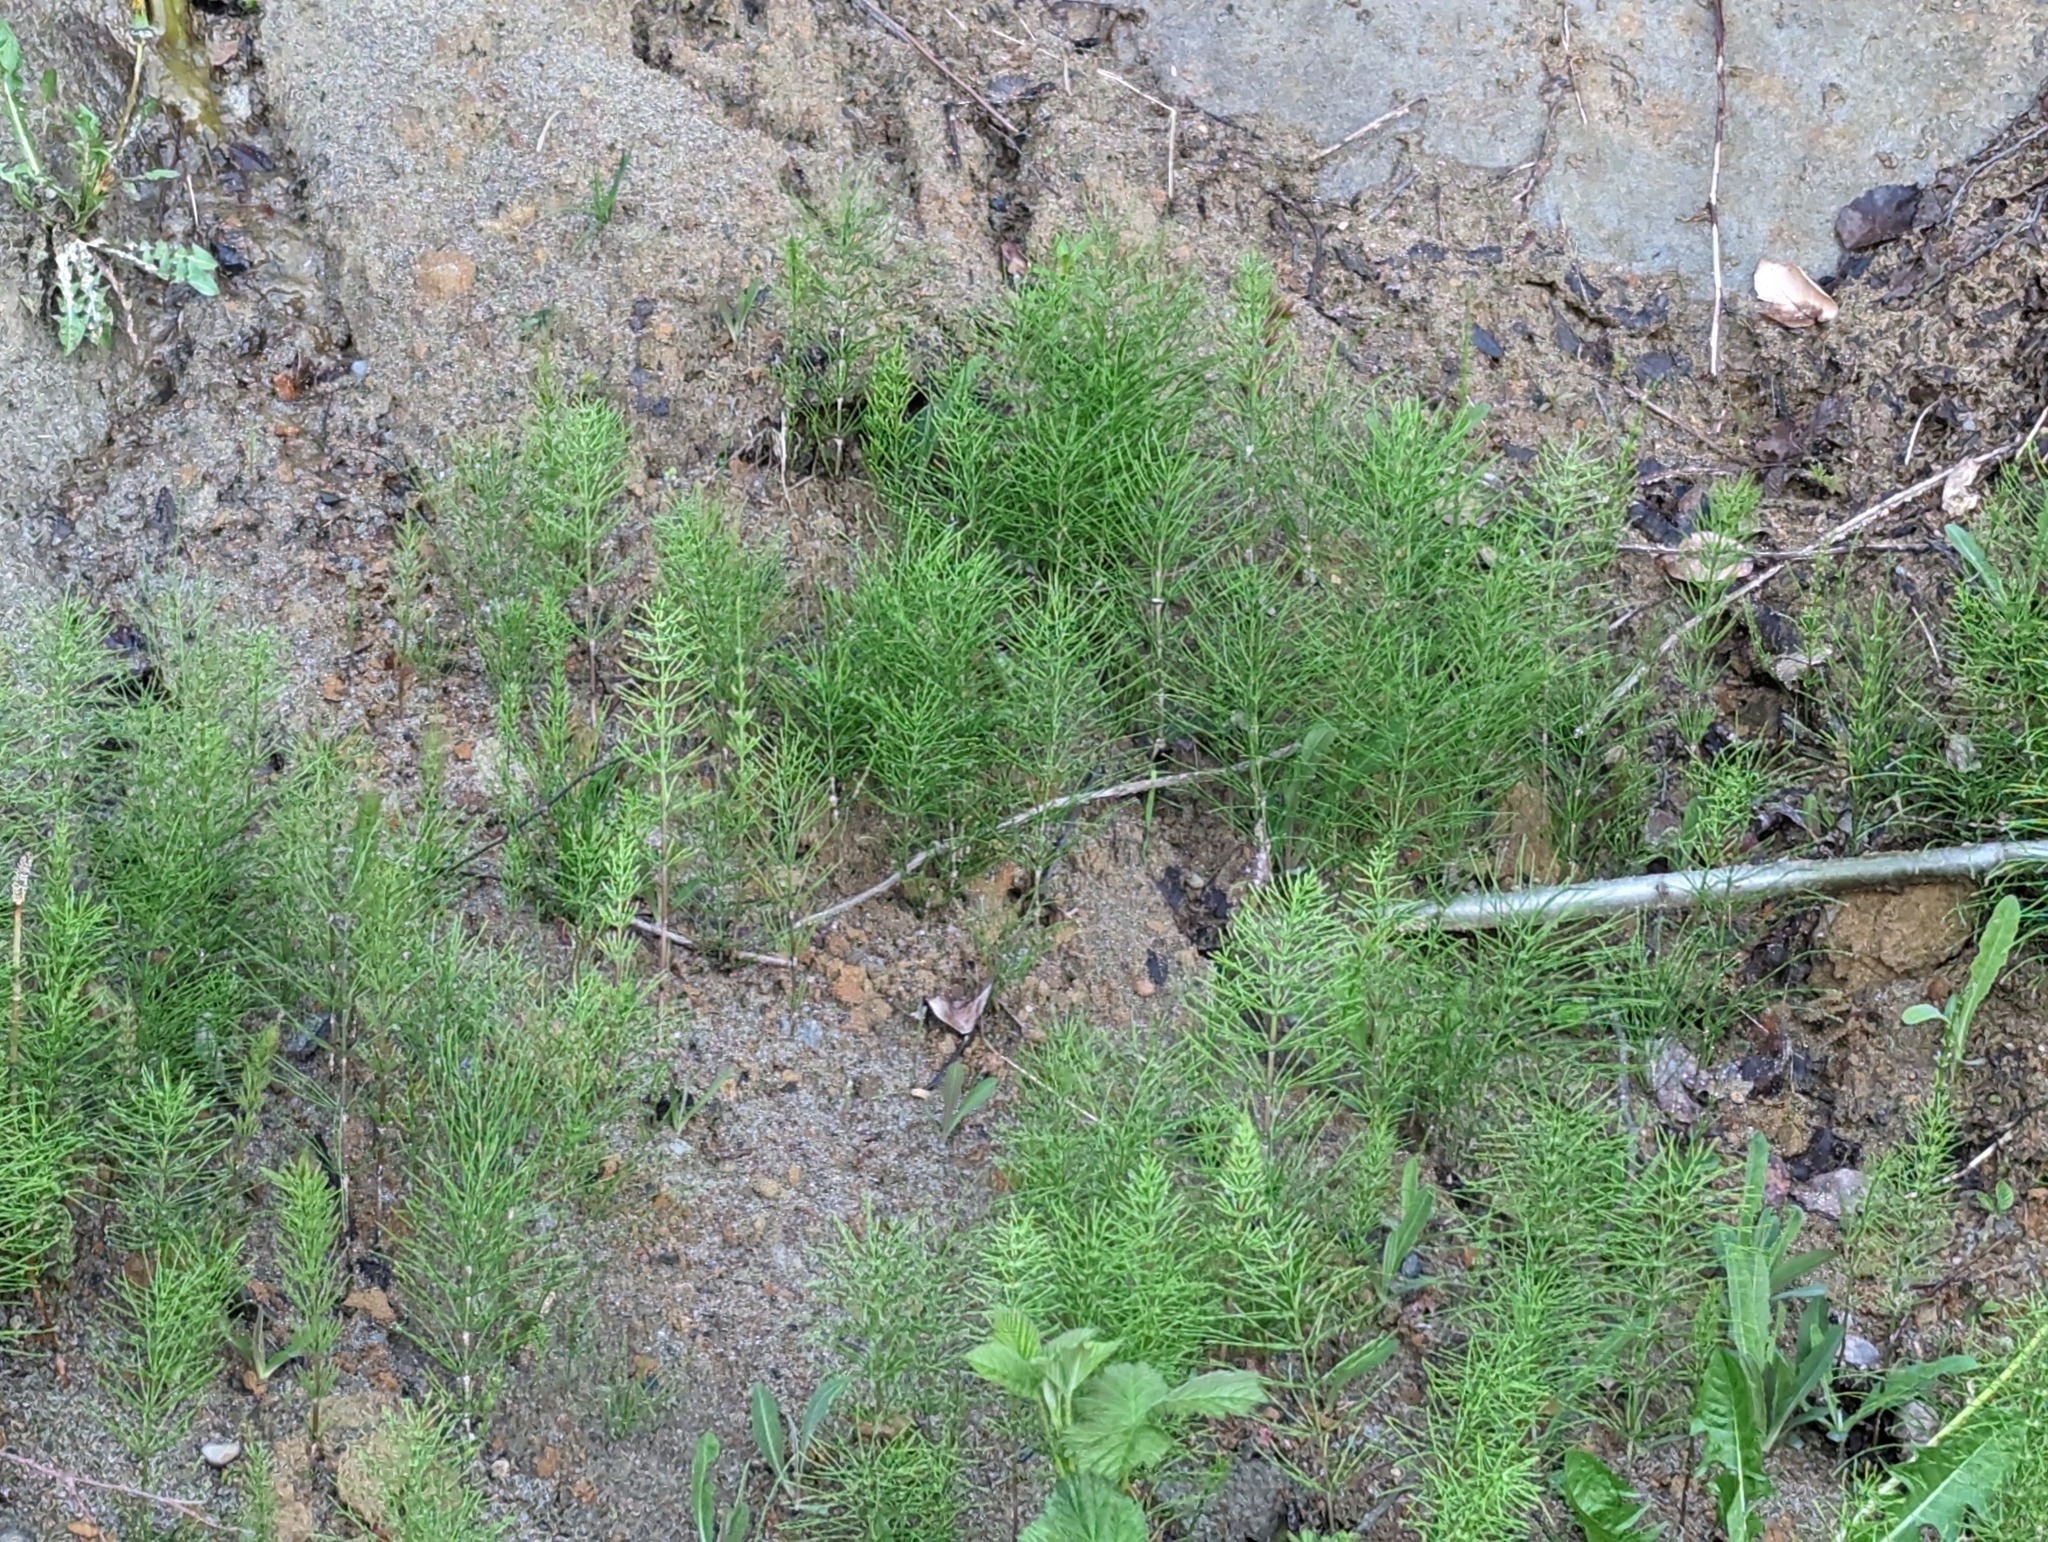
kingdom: Plantae
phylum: Tracheophyta
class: Polypodiopsida
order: Equisetales
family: Equisetaceae
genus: Equisetum
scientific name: Equisetum arvense
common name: Field horsetail
